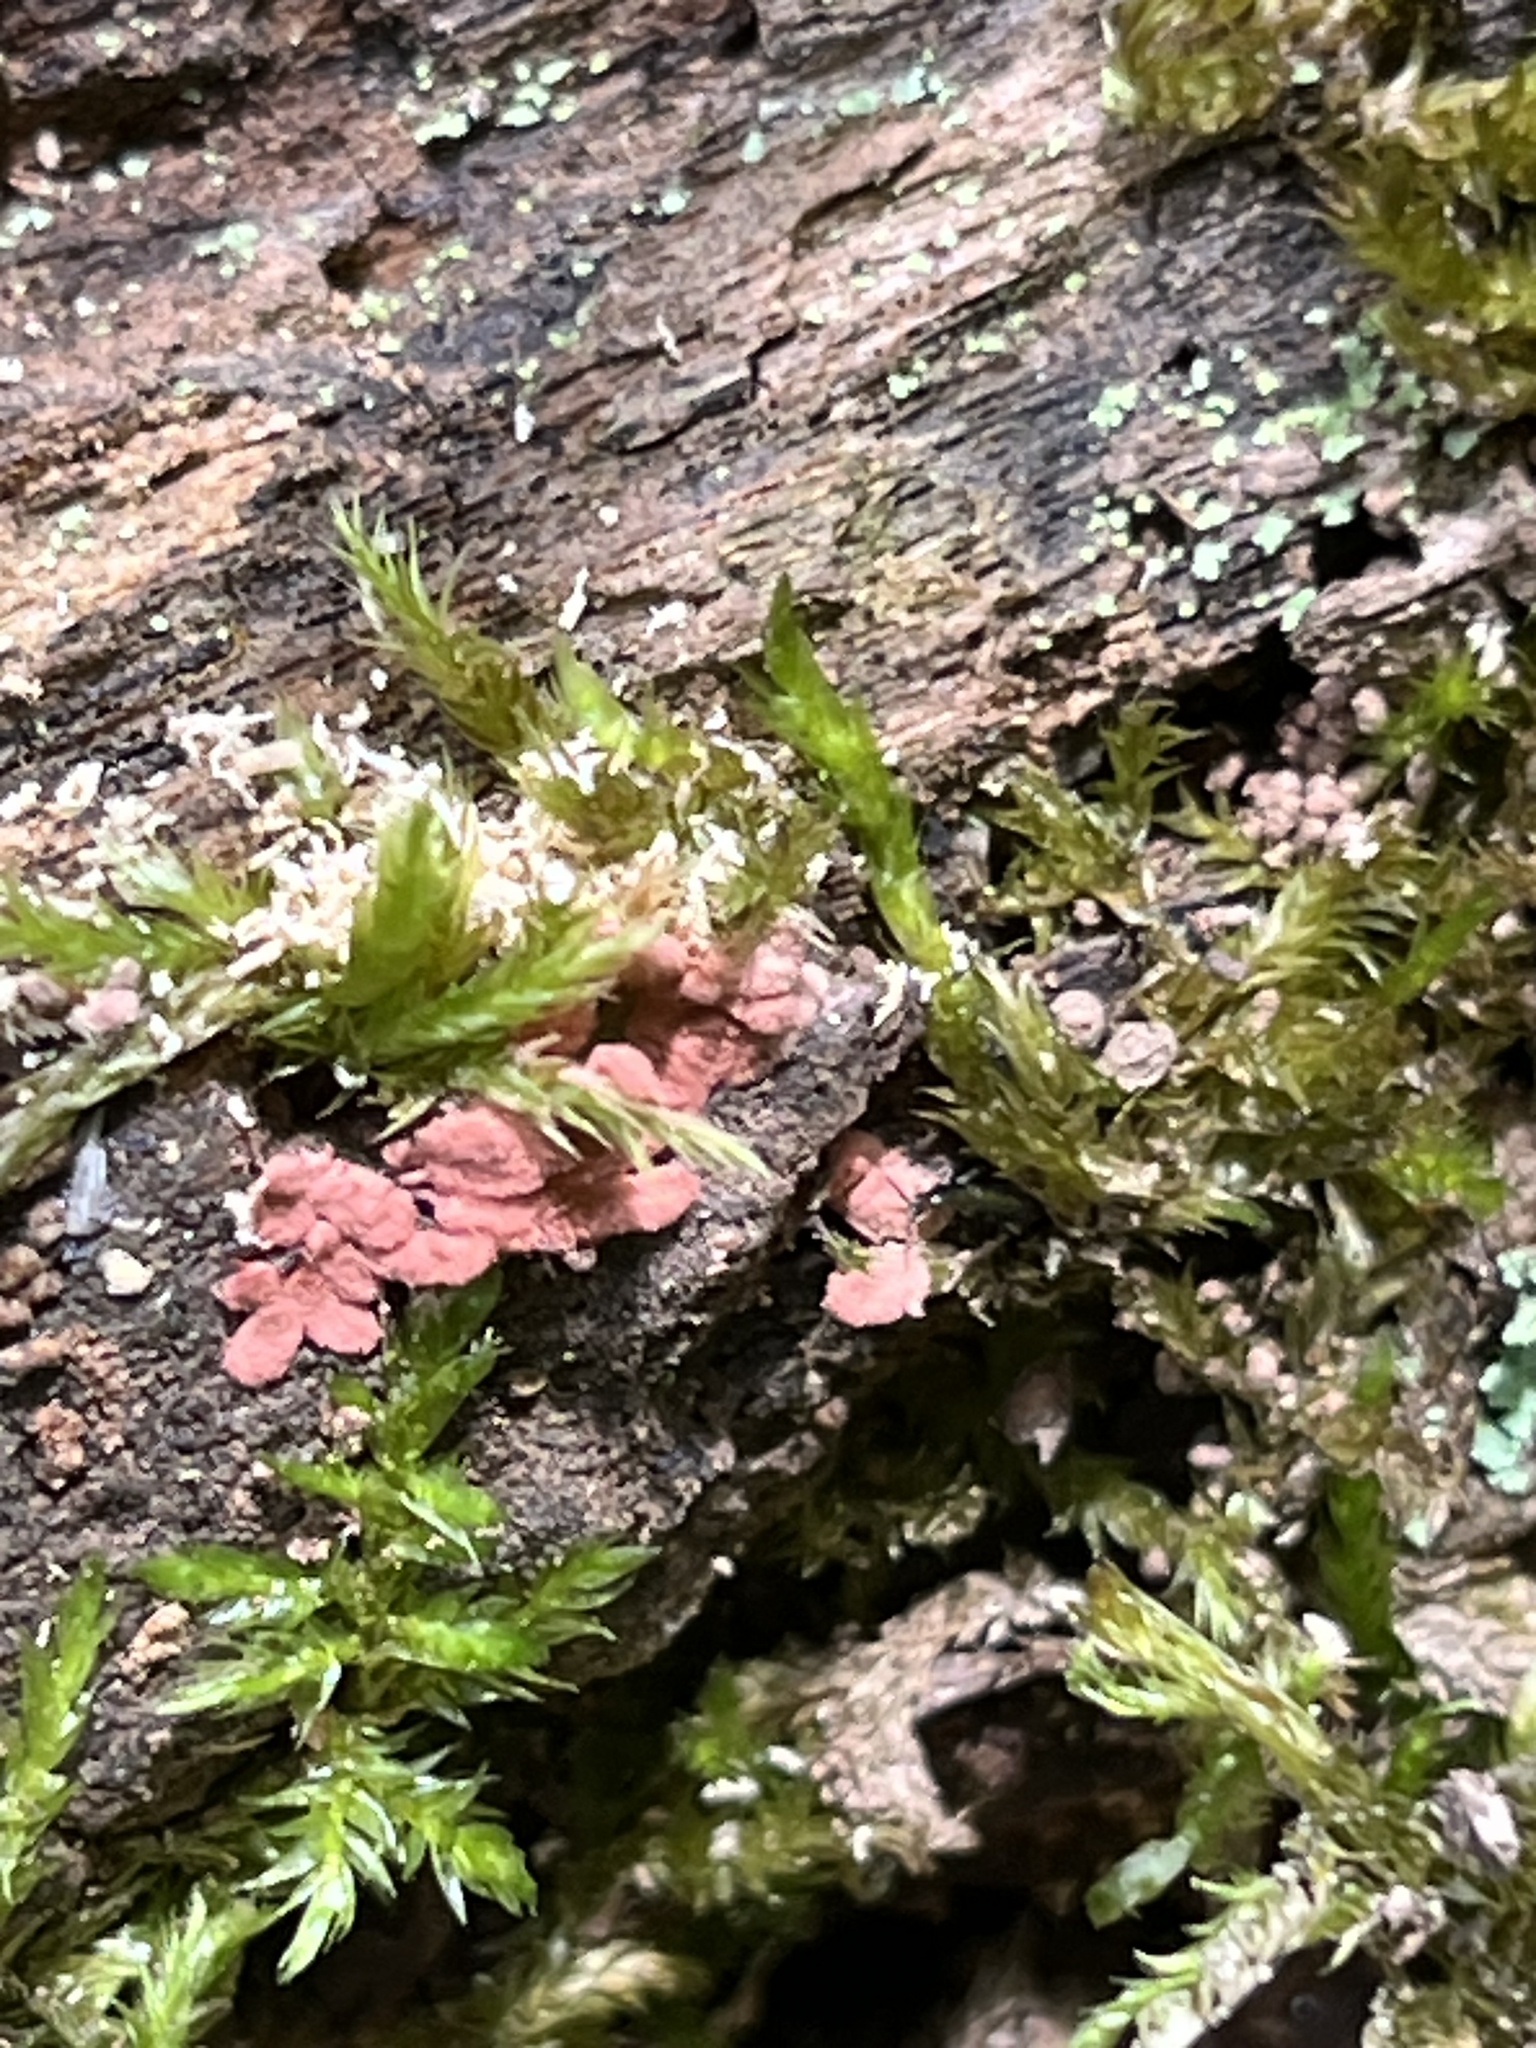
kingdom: Protozoa
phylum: Mycetozoa
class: Myxomycetes
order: Trichiales
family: Arcyriaceae
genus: Arcyria
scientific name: Arcyria denudata
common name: Carnival candy slime mold
